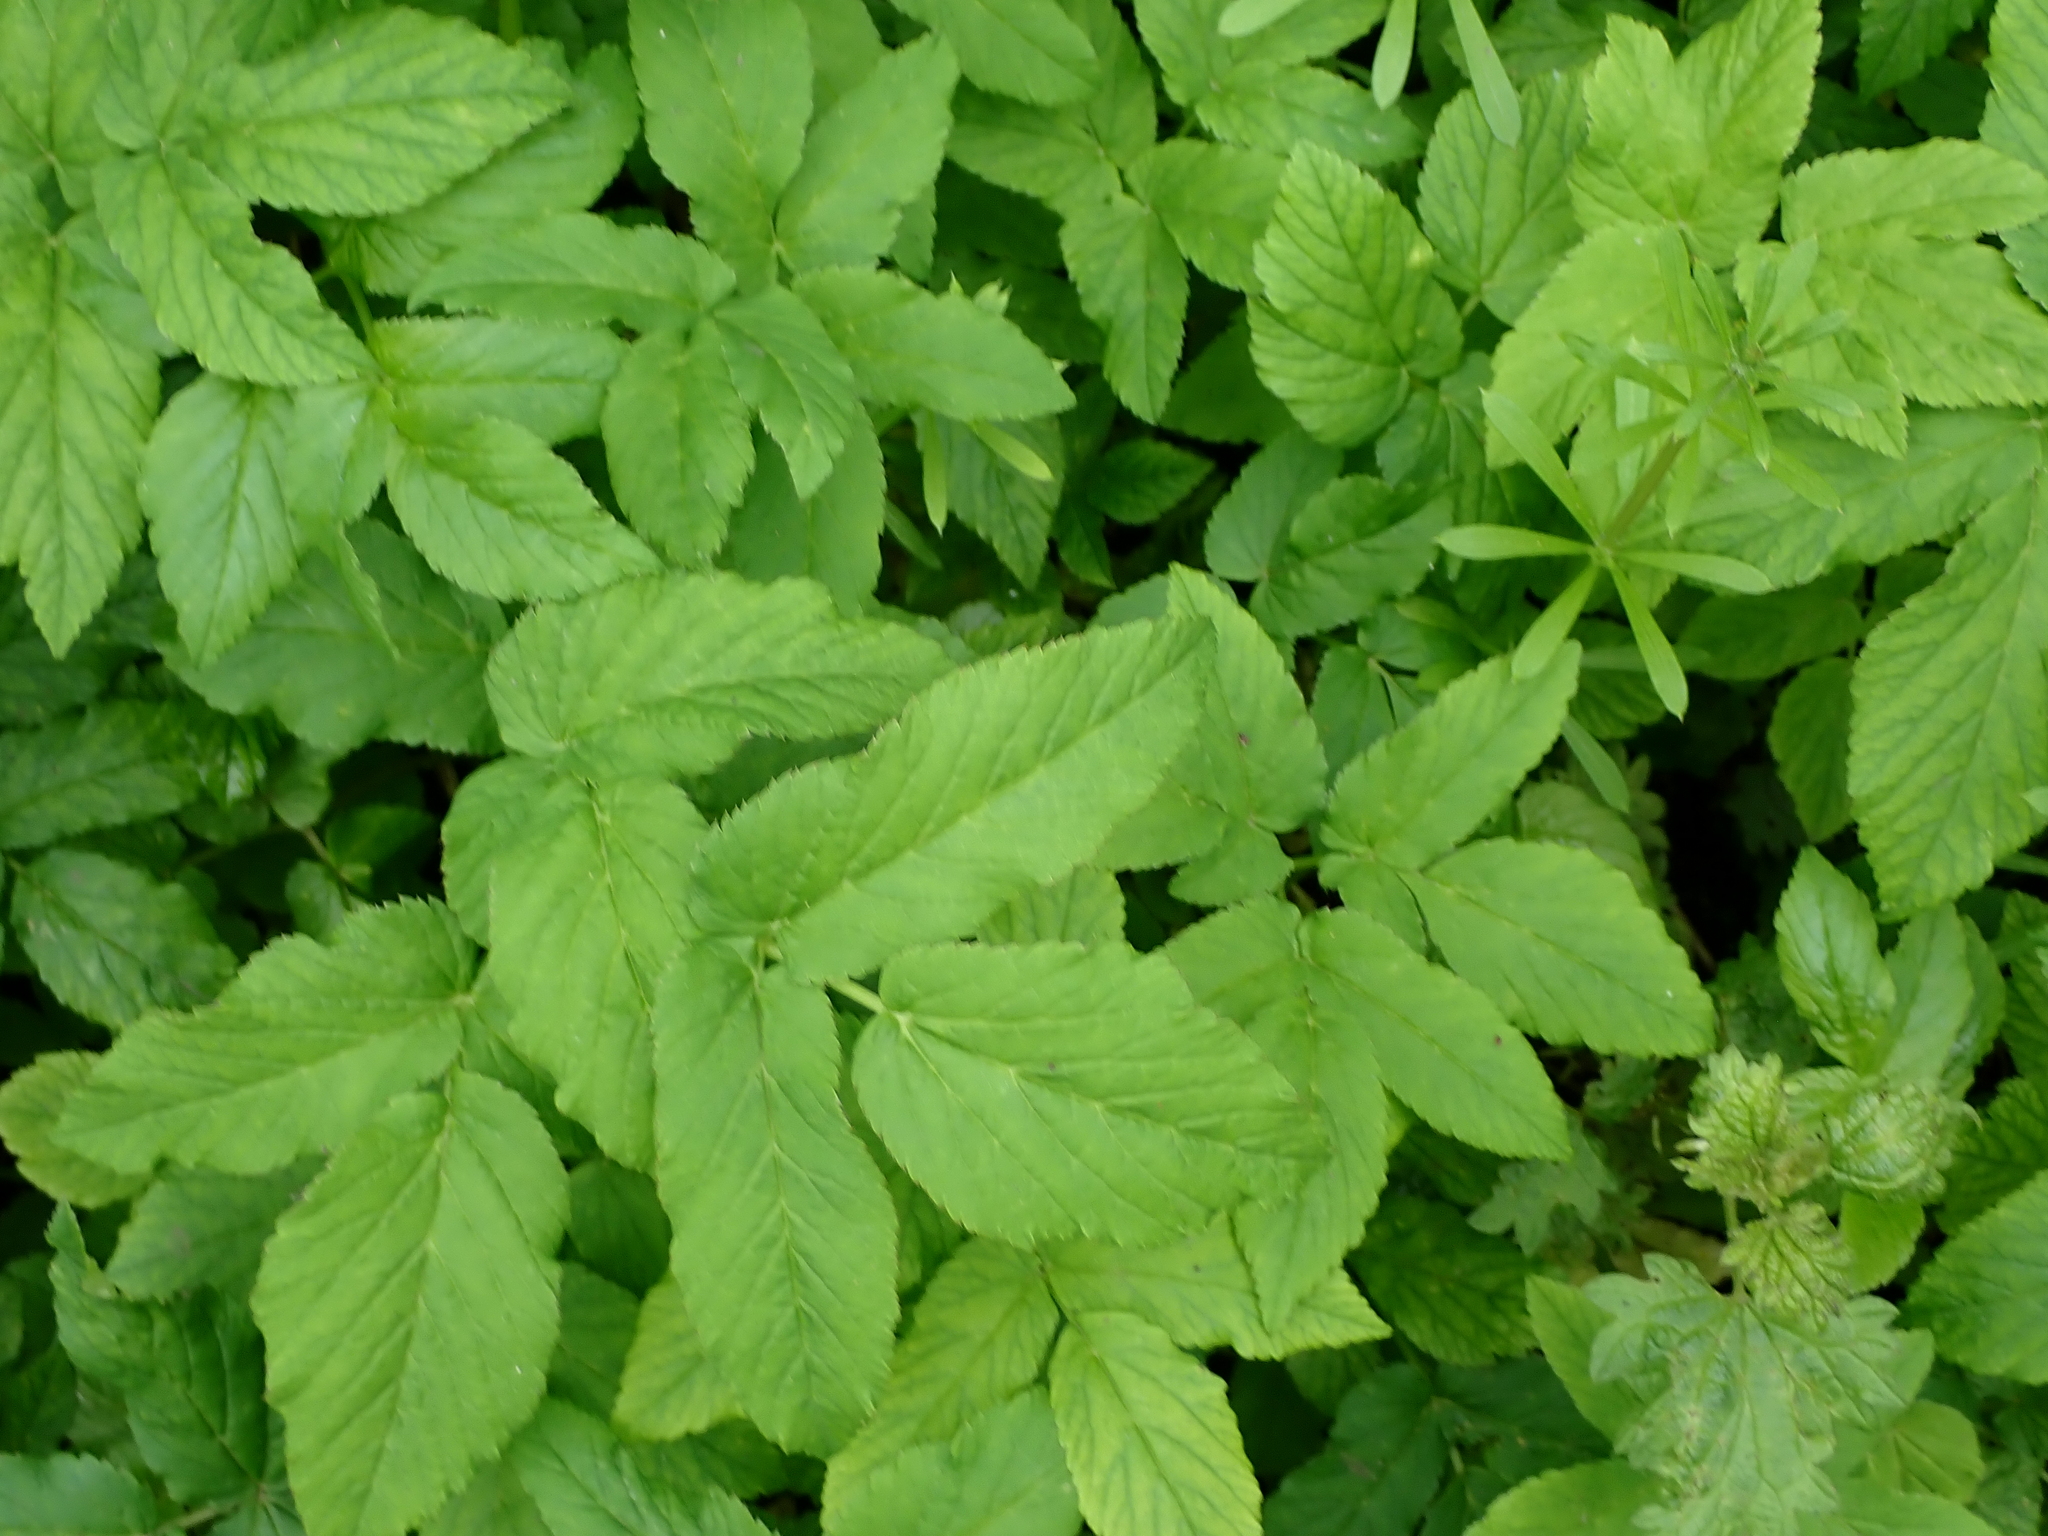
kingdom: Plantae
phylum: Tracheophyta
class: Magnoliopsida
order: Apiales
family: Apiaceae
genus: Aegopodium
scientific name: Aegopodium podagraria
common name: Ground-elder
